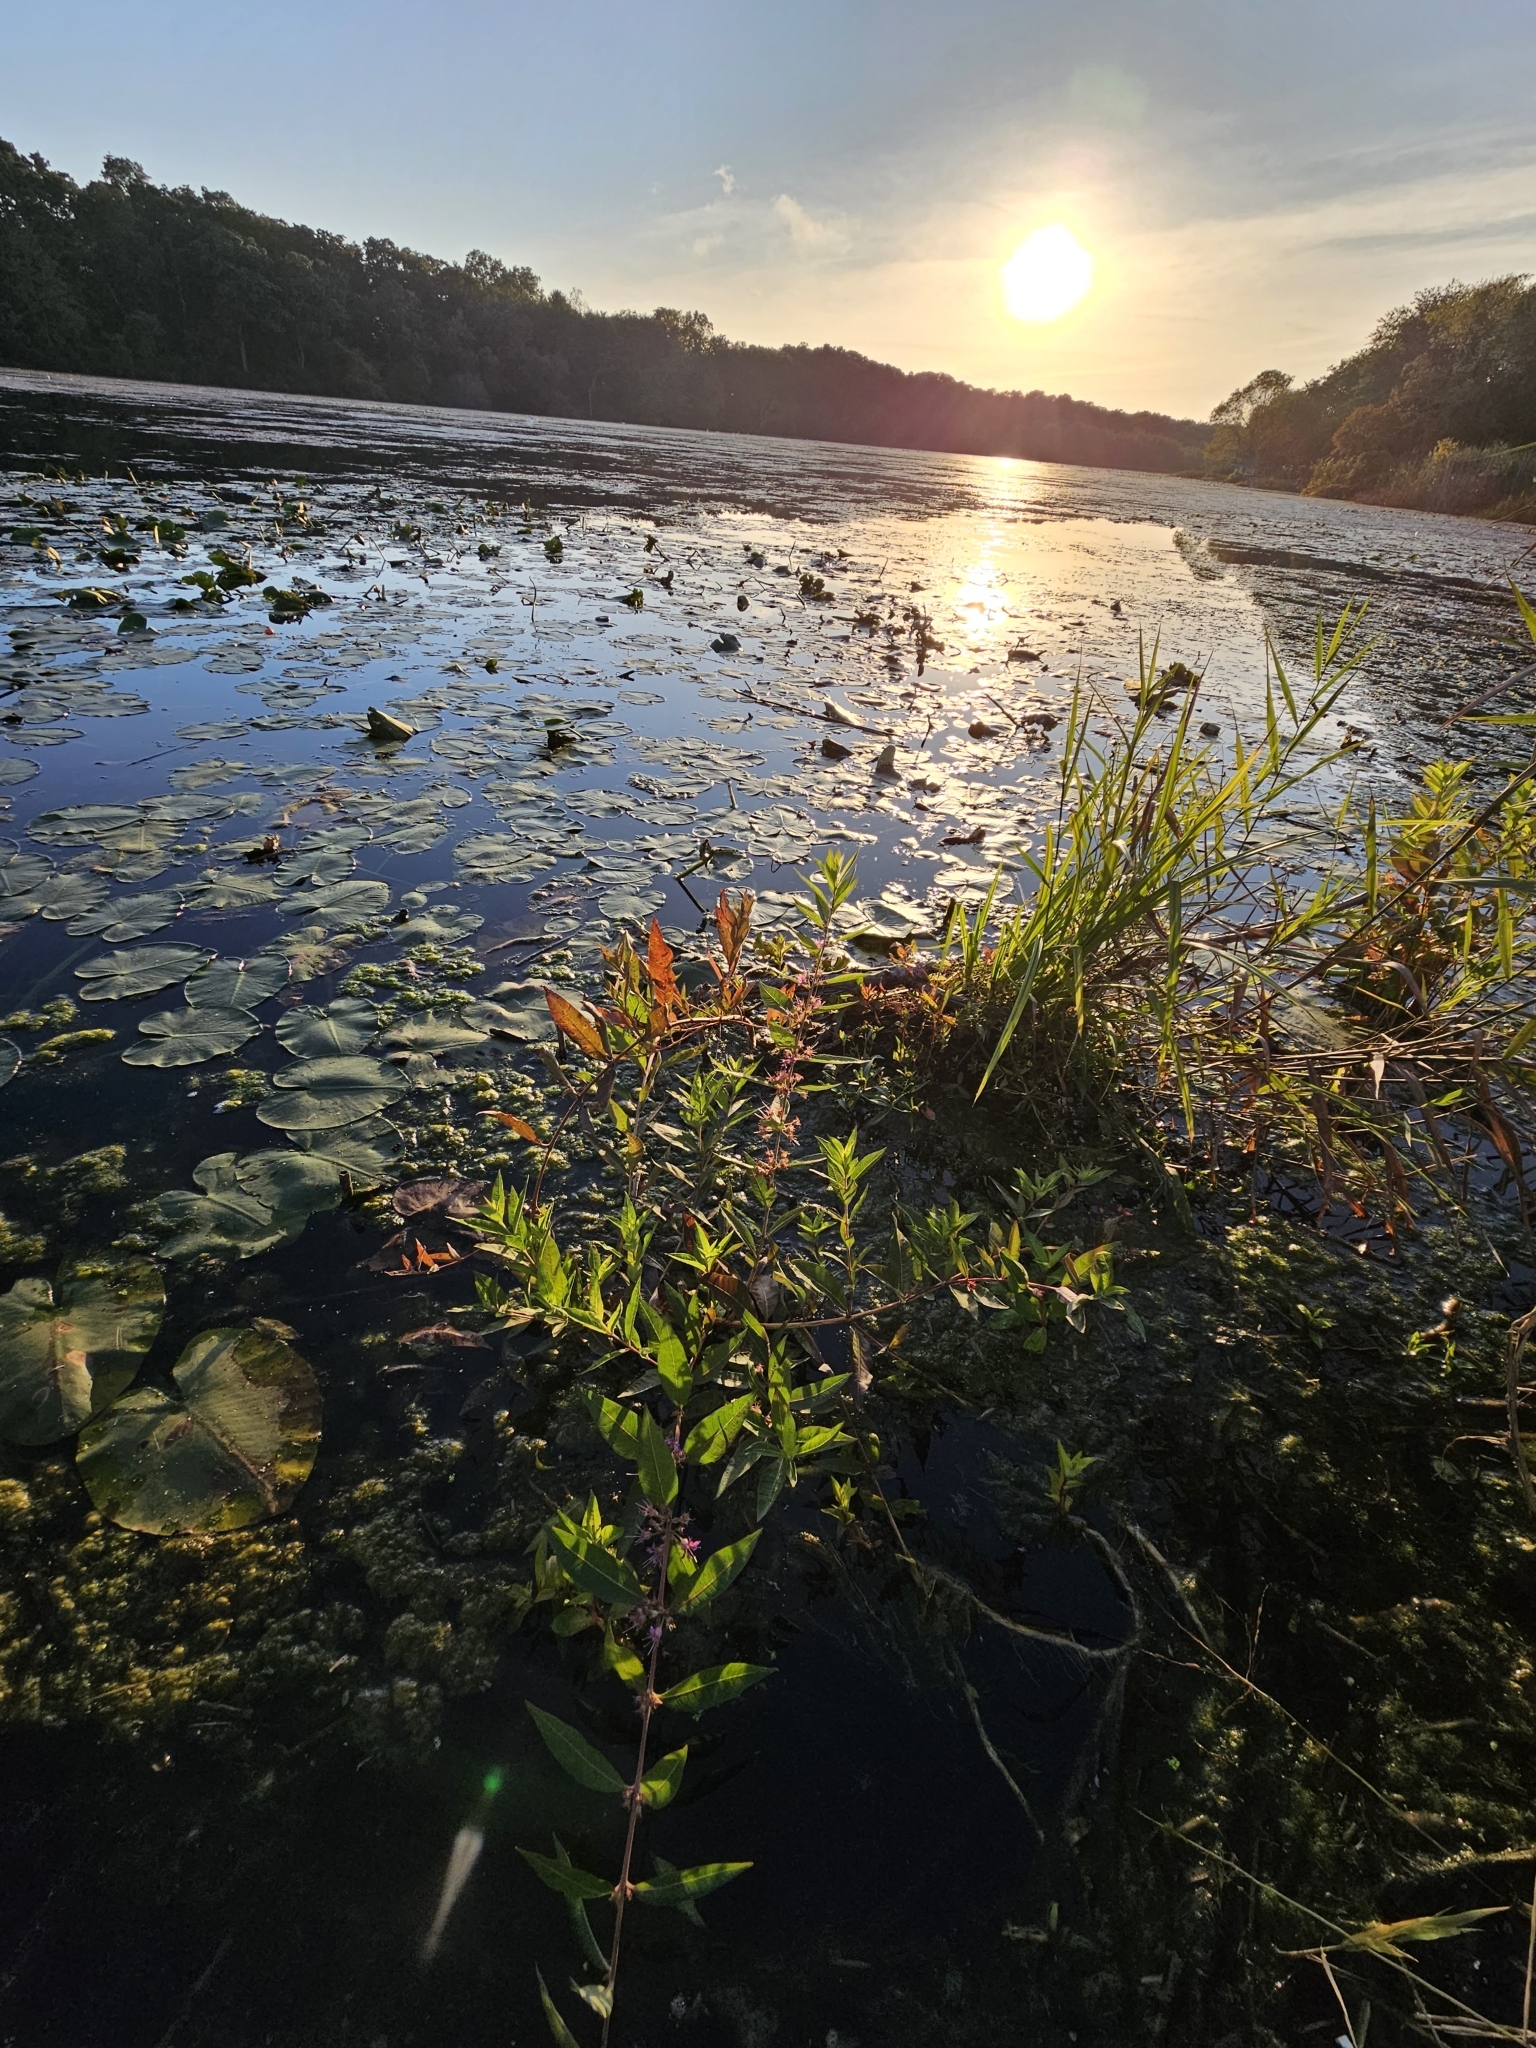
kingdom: Plantae
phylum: Tracheophyta
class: Magnoliopsida
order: Myrtales
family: Lythraceae
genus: Decodon
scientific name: Decodon verticillatus
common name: Hairy swamp loosestrife
